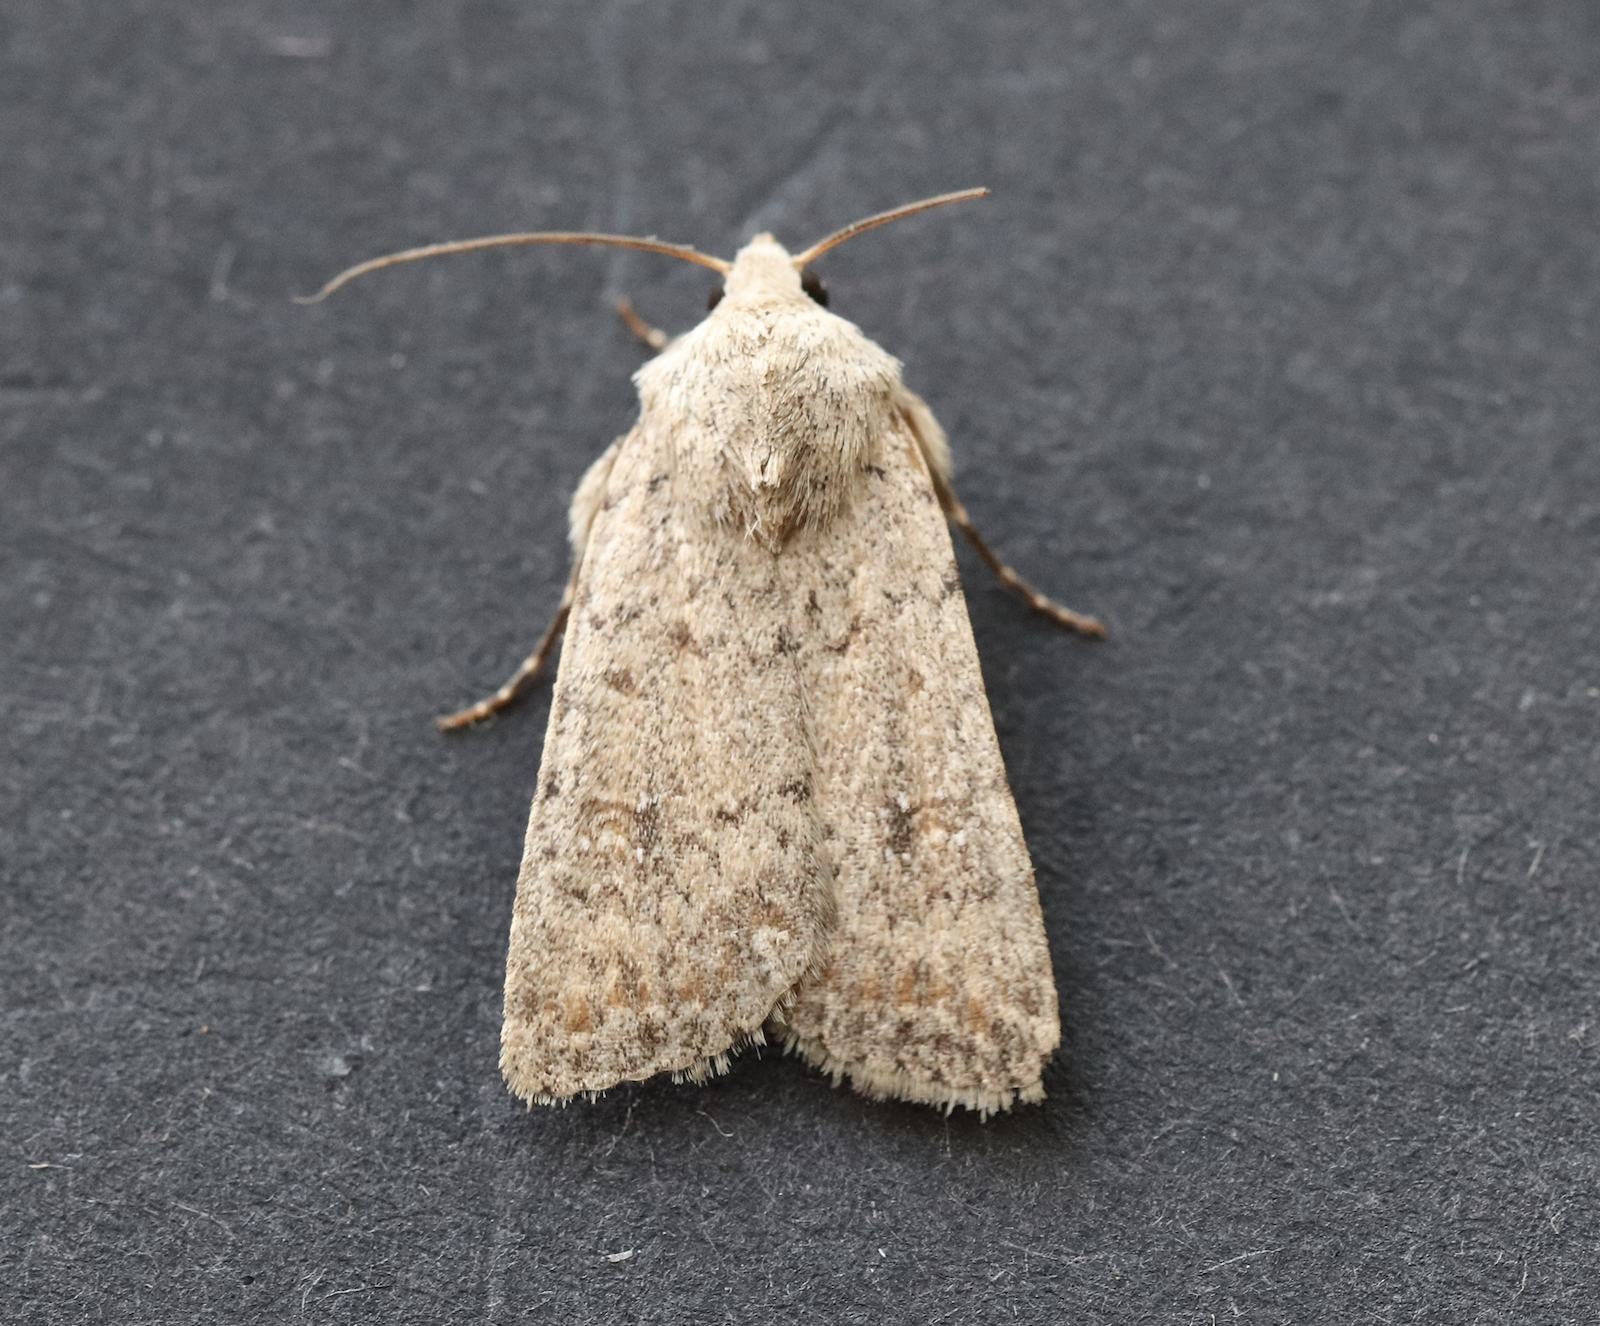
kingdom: Animalia
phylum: Arthropoda
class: Insecta
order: Lepidoptera
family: Noctuidae
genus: Caradrina
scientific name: Caradrina clavipalpis
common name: Pale mottled willow
